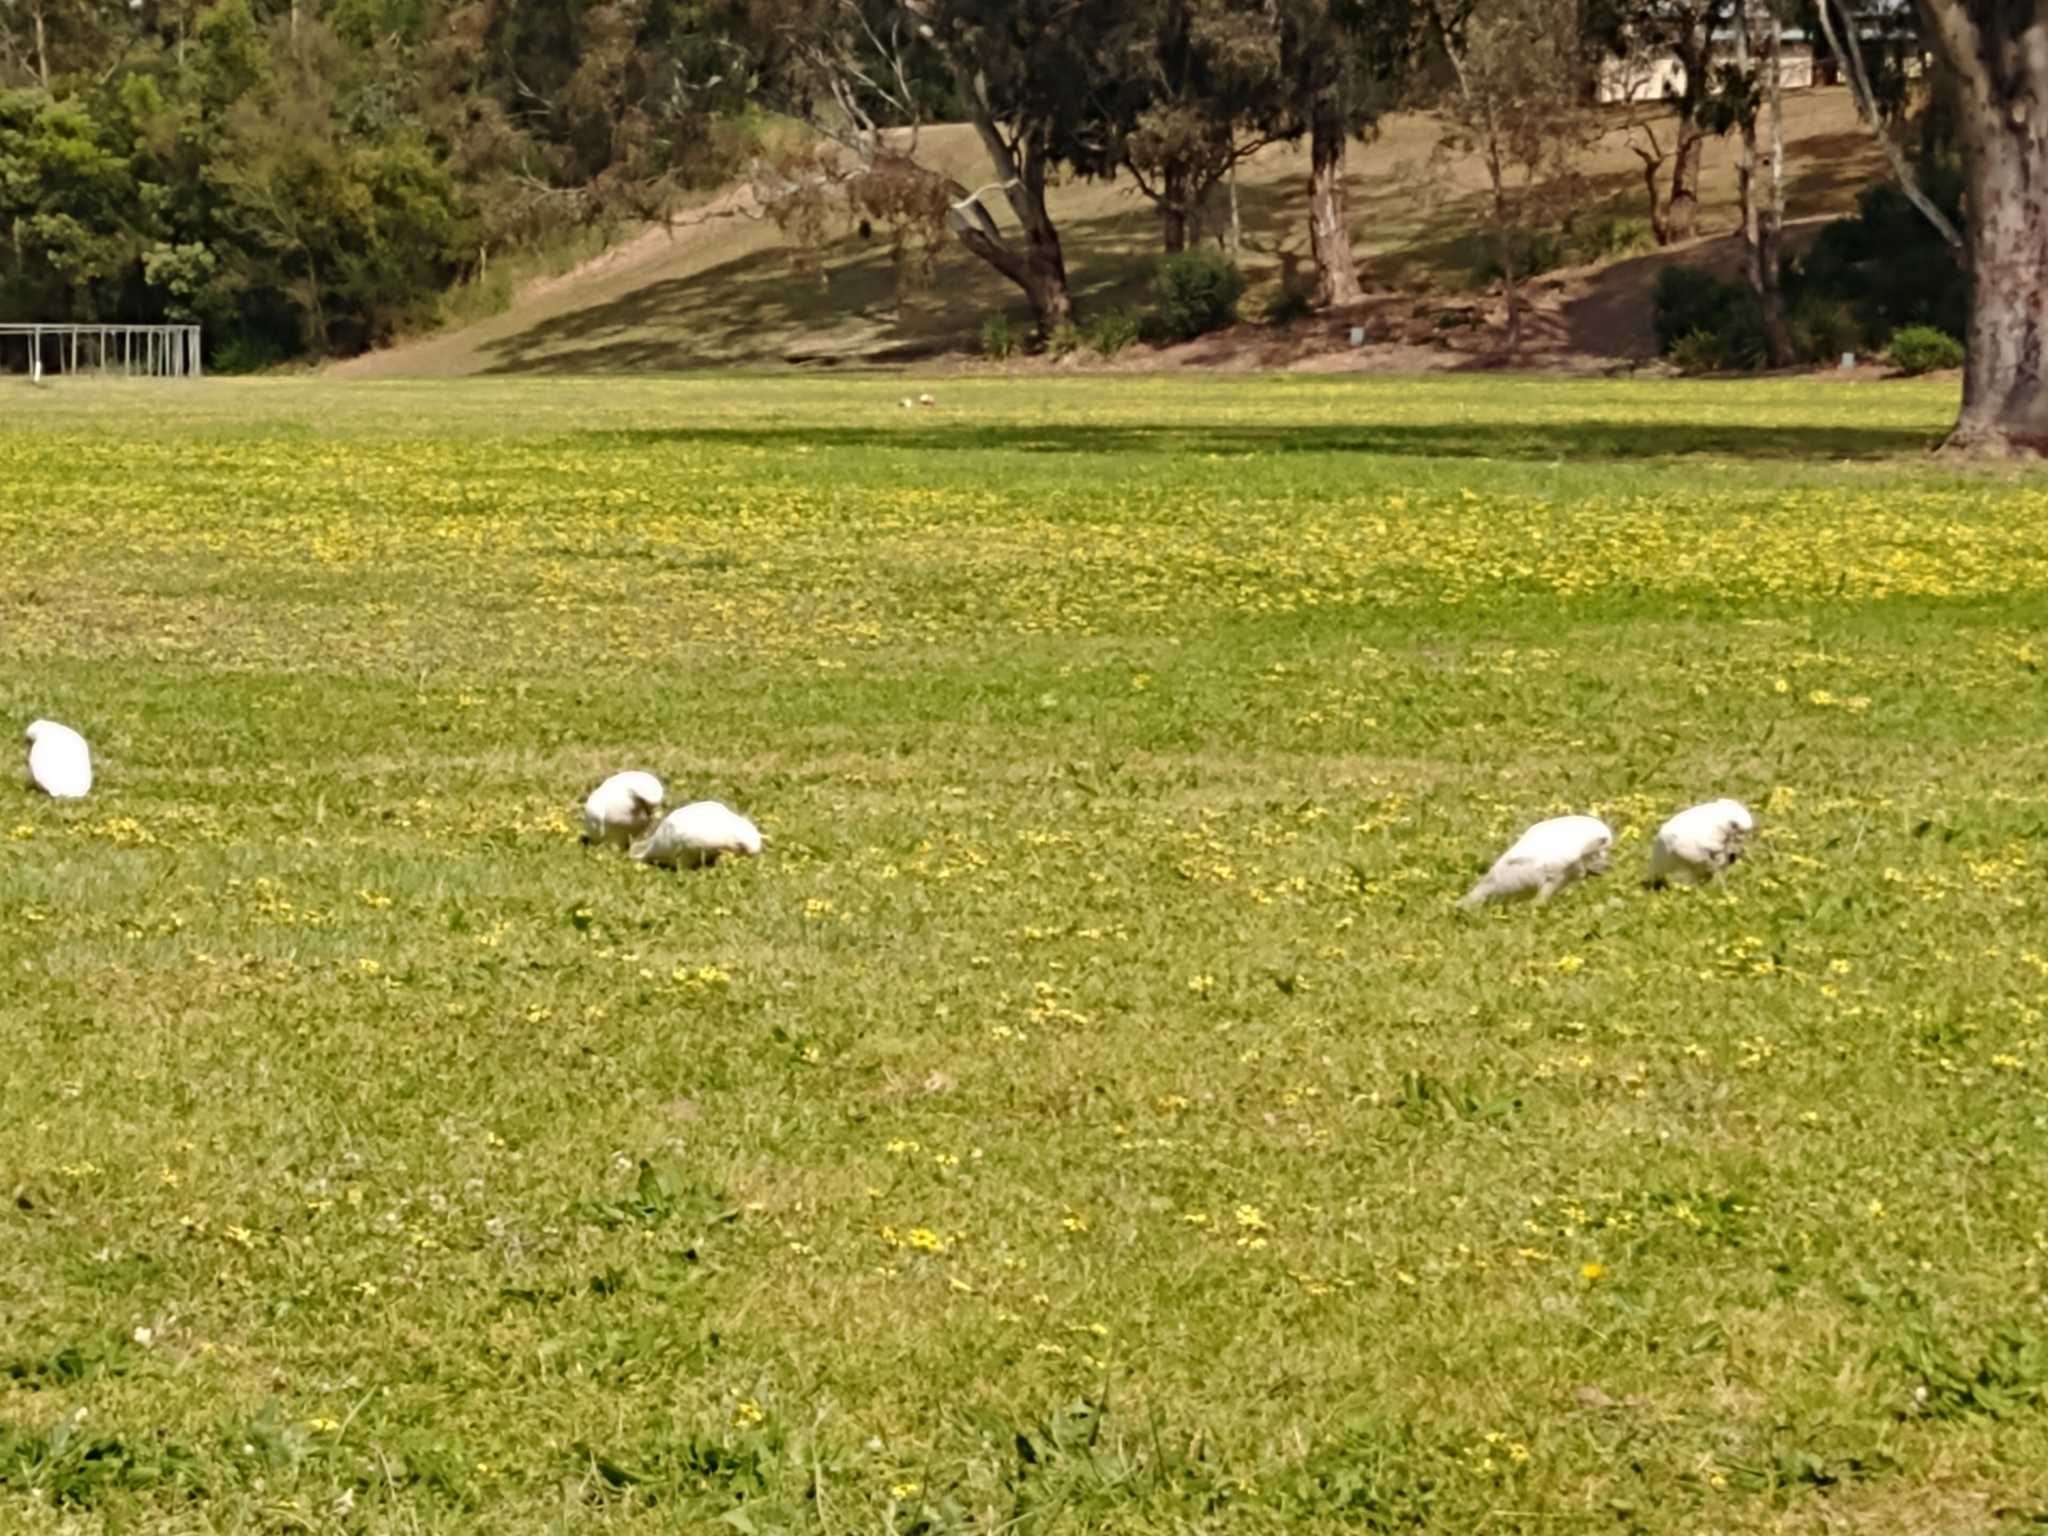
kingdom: Animalia
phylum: Chordata
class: Aves
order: Psittaciformes
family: Psittacidae
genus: Cacatua
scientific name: Cacatua sanguinea
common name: Little corella
